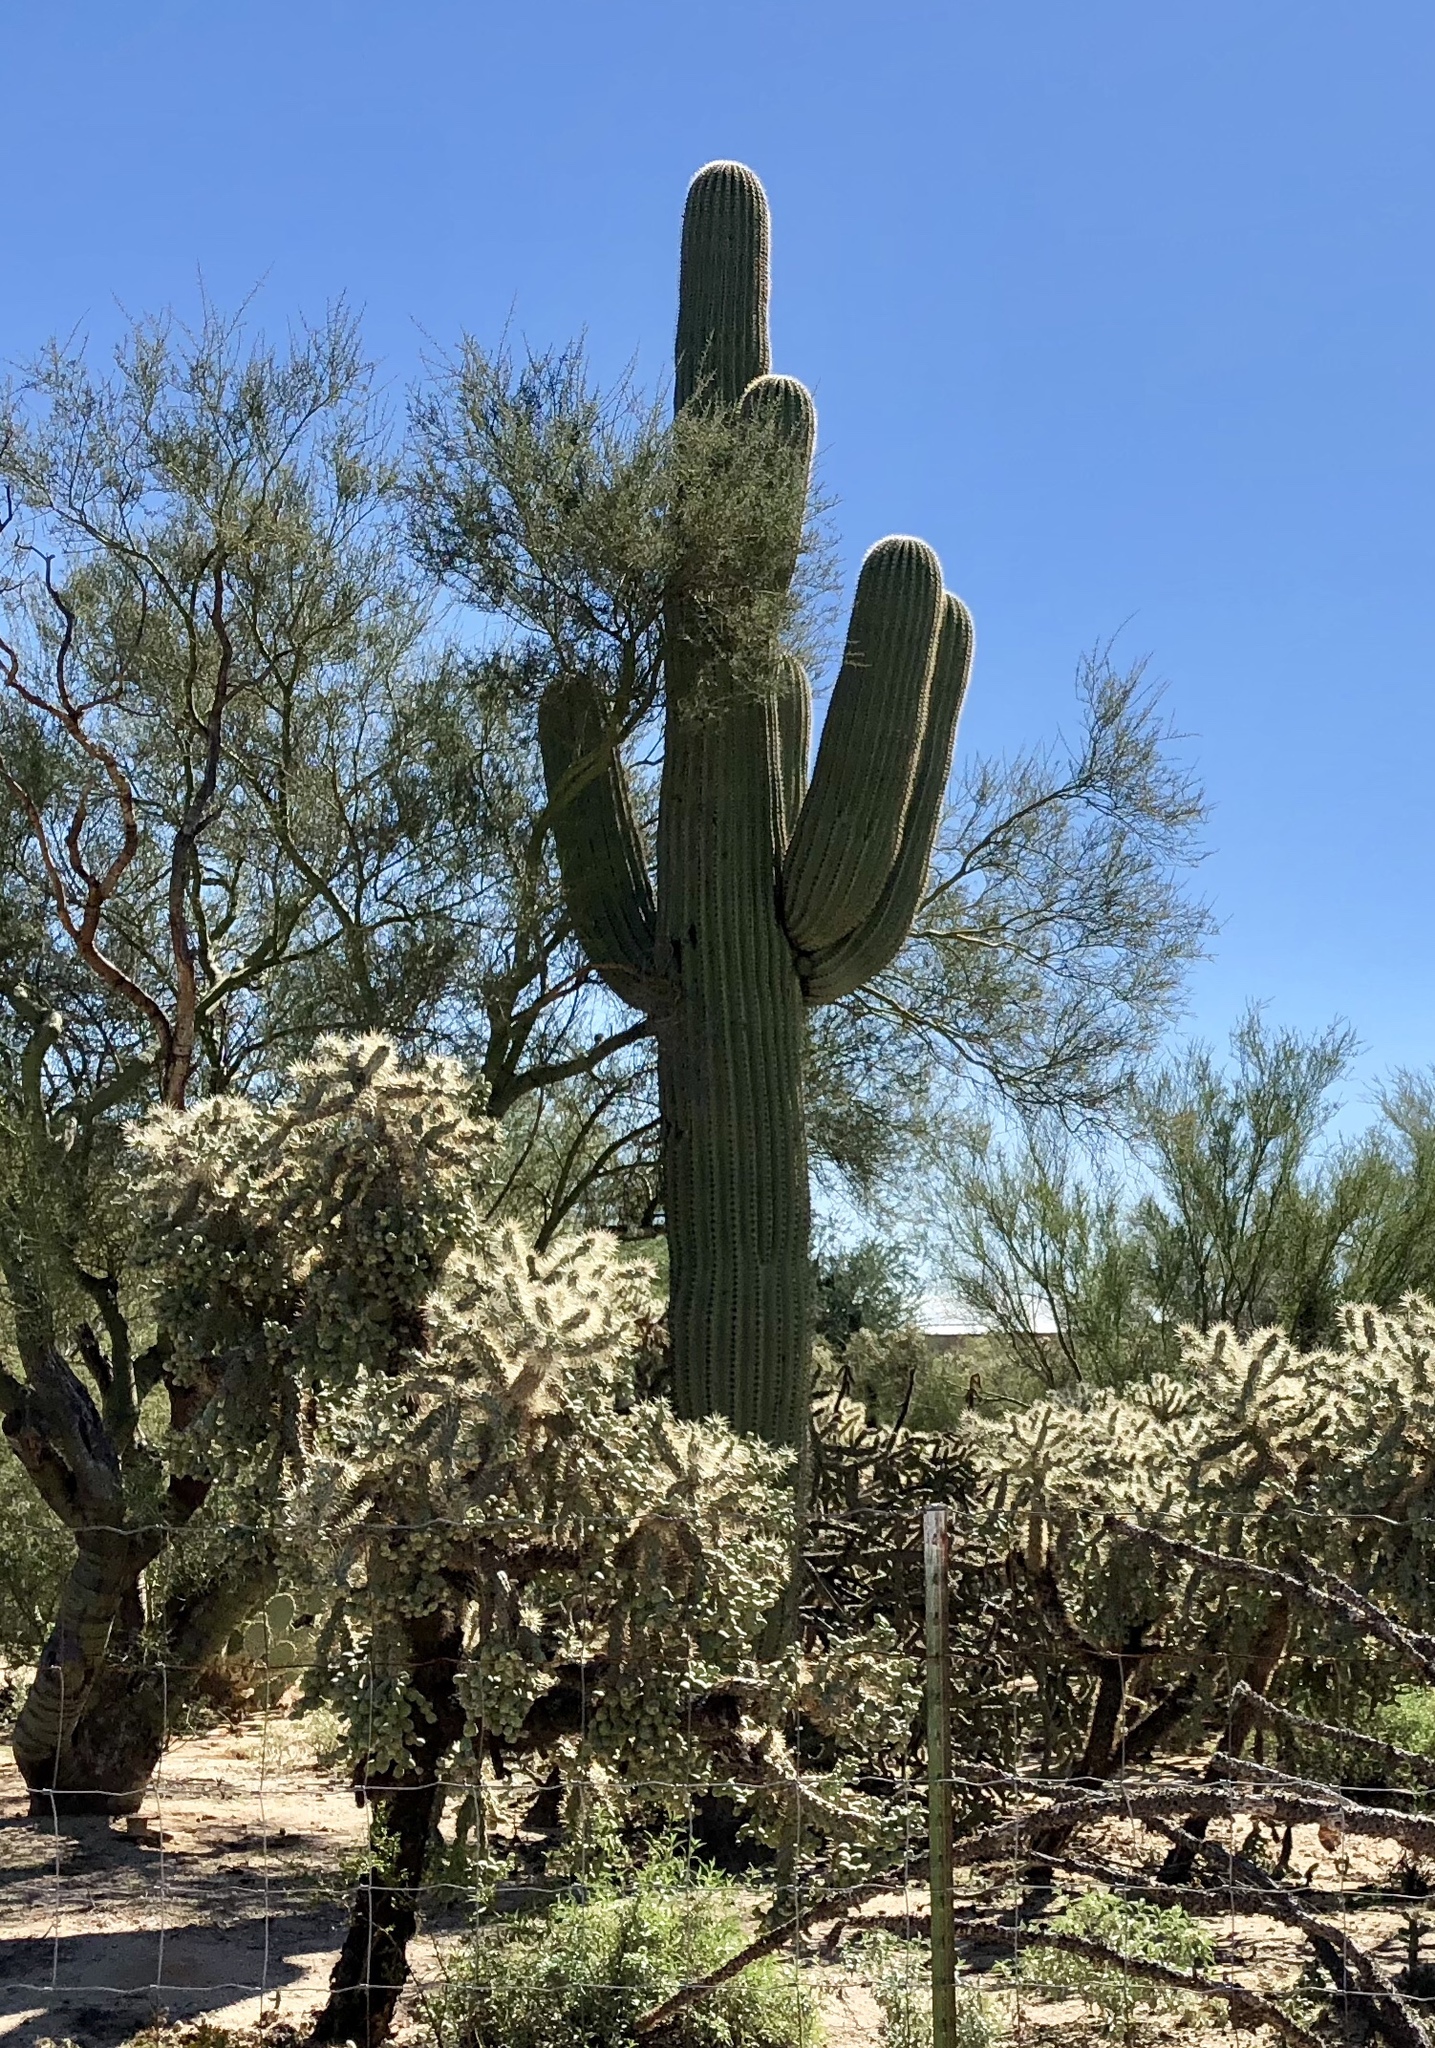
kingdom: Plantae
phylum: Tracheophyta
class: Magnoliopsida
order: Caryophyllales
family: Cactaceae
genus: Carnegiea
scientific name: Carnegiea gigantea
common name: Saguaro
